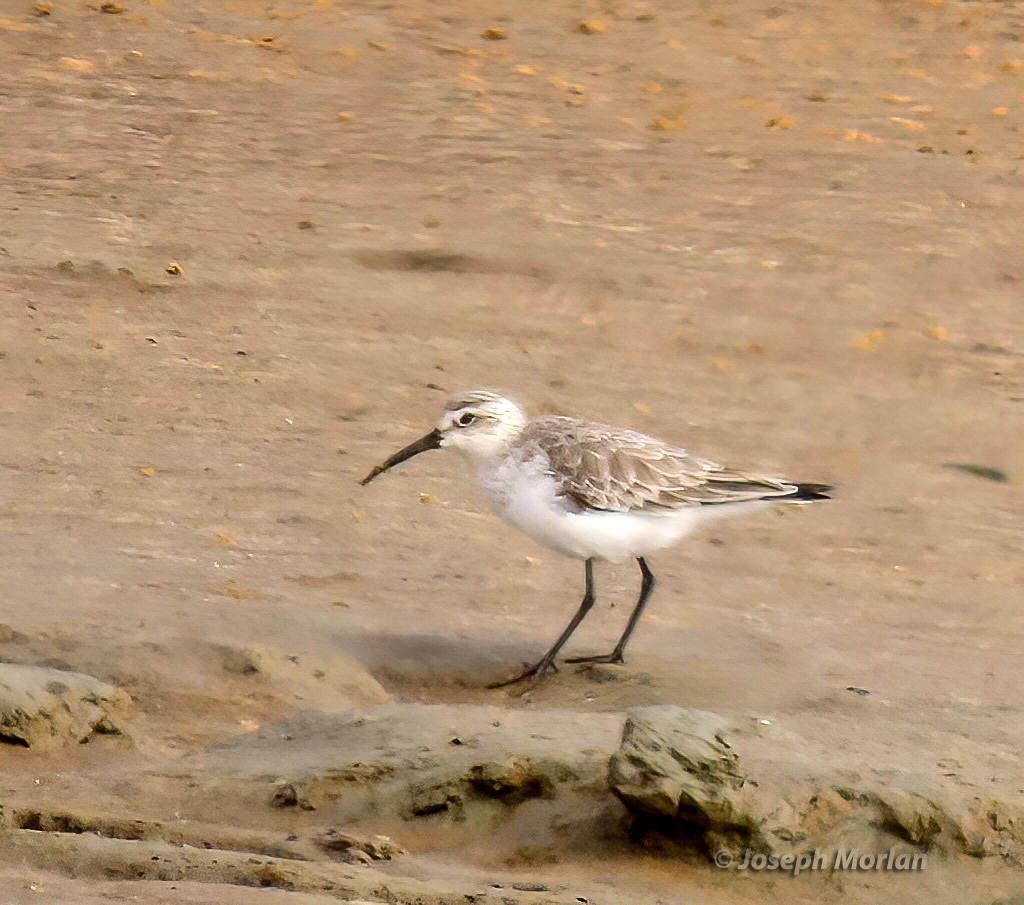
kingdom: Animalia
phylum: Chordata
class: Aves
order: Charadriiformes
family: Scolopacidae
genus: Calidris
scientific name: Calidris ferruginea
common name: Curlew sandpiper
